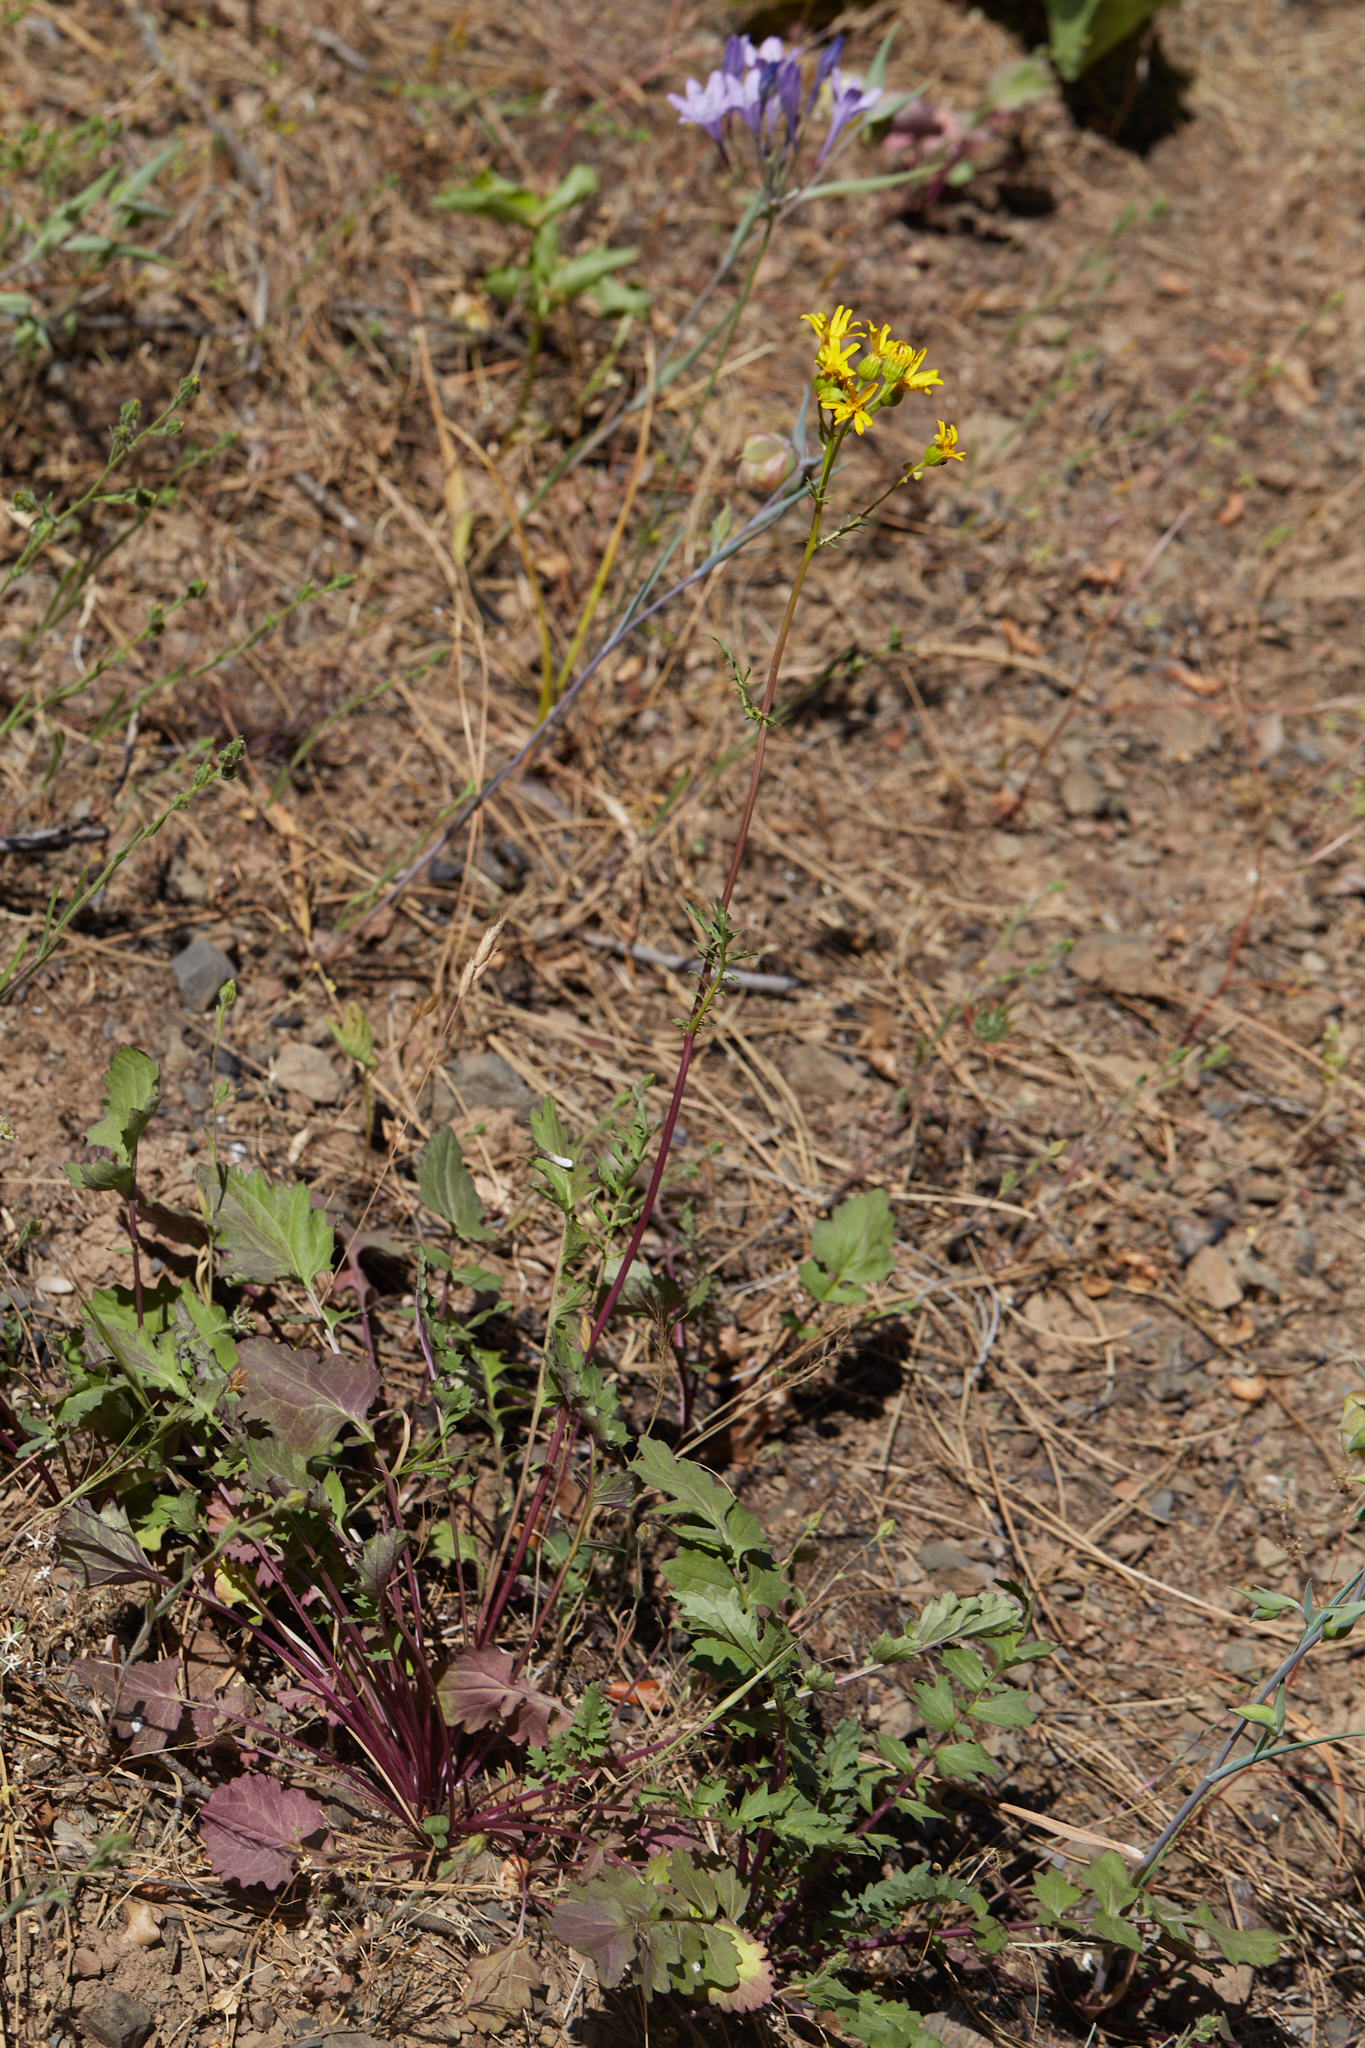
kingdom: Plantae
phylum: Tracheophyta
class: Magnoliopsida
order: Asterales
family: Asteraceae
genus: Packera
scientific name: Packera breweri
